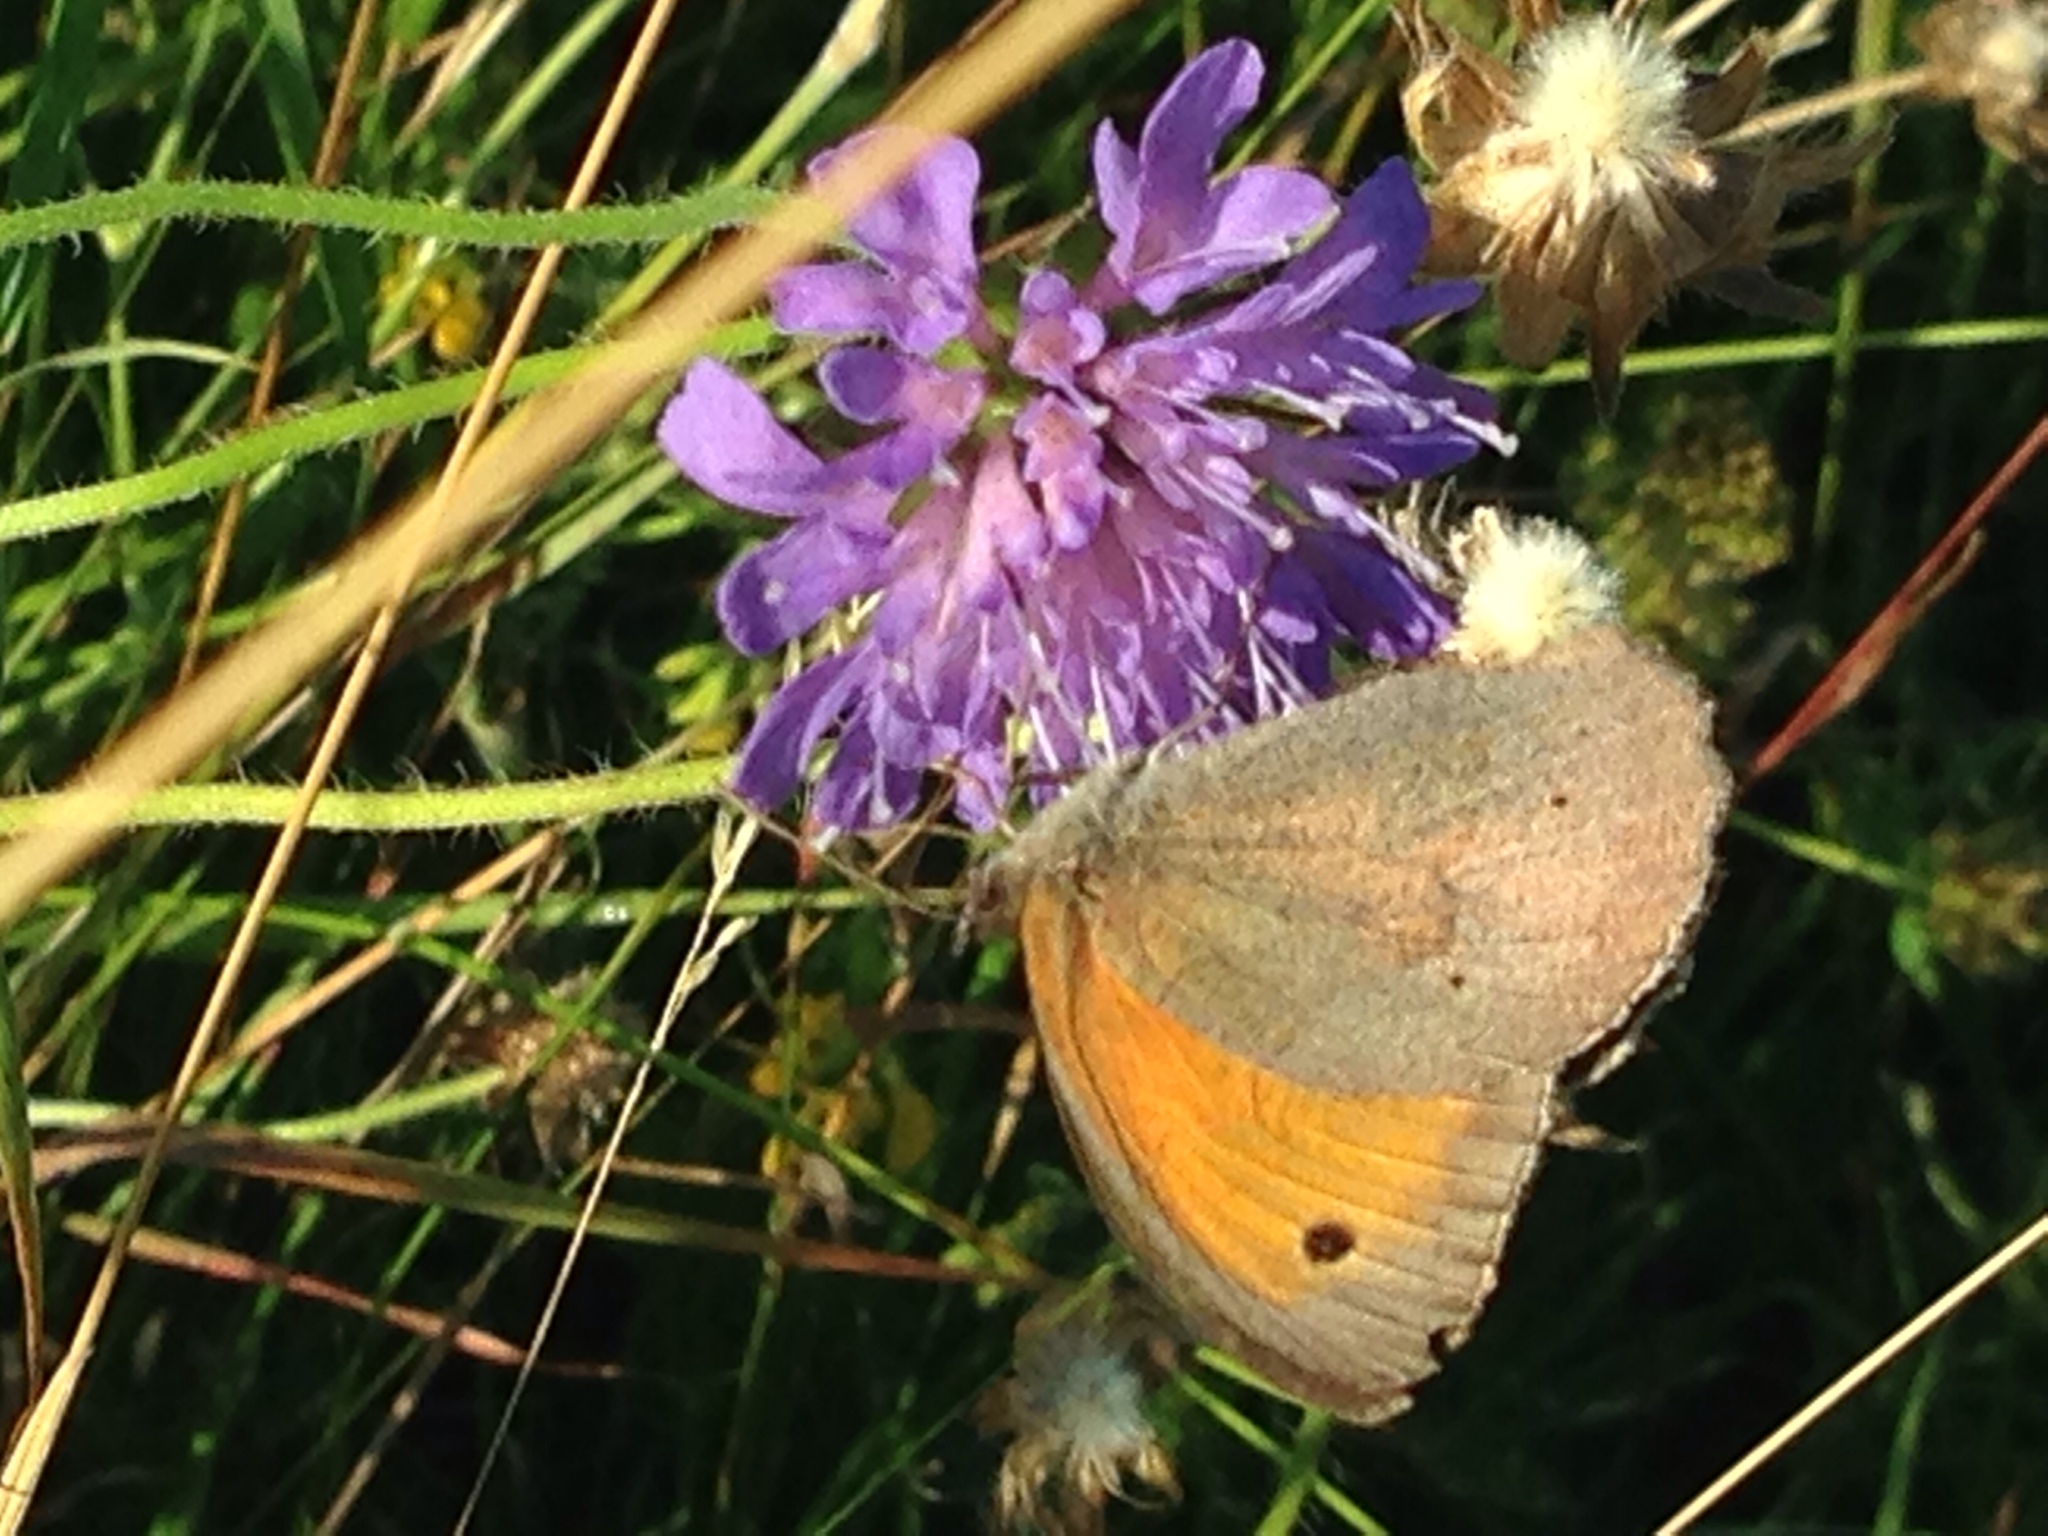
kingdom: Animalia
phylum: Arthropoda
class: Insecta
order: Lepidoptera
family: Nymphalidae
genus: Maniola
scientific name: Maniola jurtina
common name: Meadow brown
